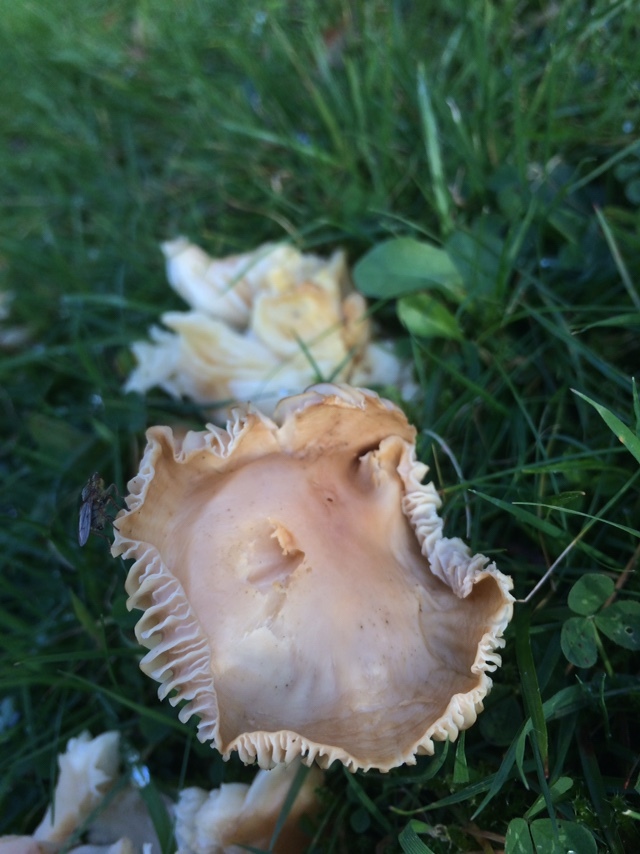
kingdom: Fungi
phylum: Basidiomycota
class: Agaricomycetes
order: Agaricales
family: Hygrophoraceae
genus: Cuphophyllus
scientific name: Cuphophyllus pratensis
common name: Meadow waxcap
